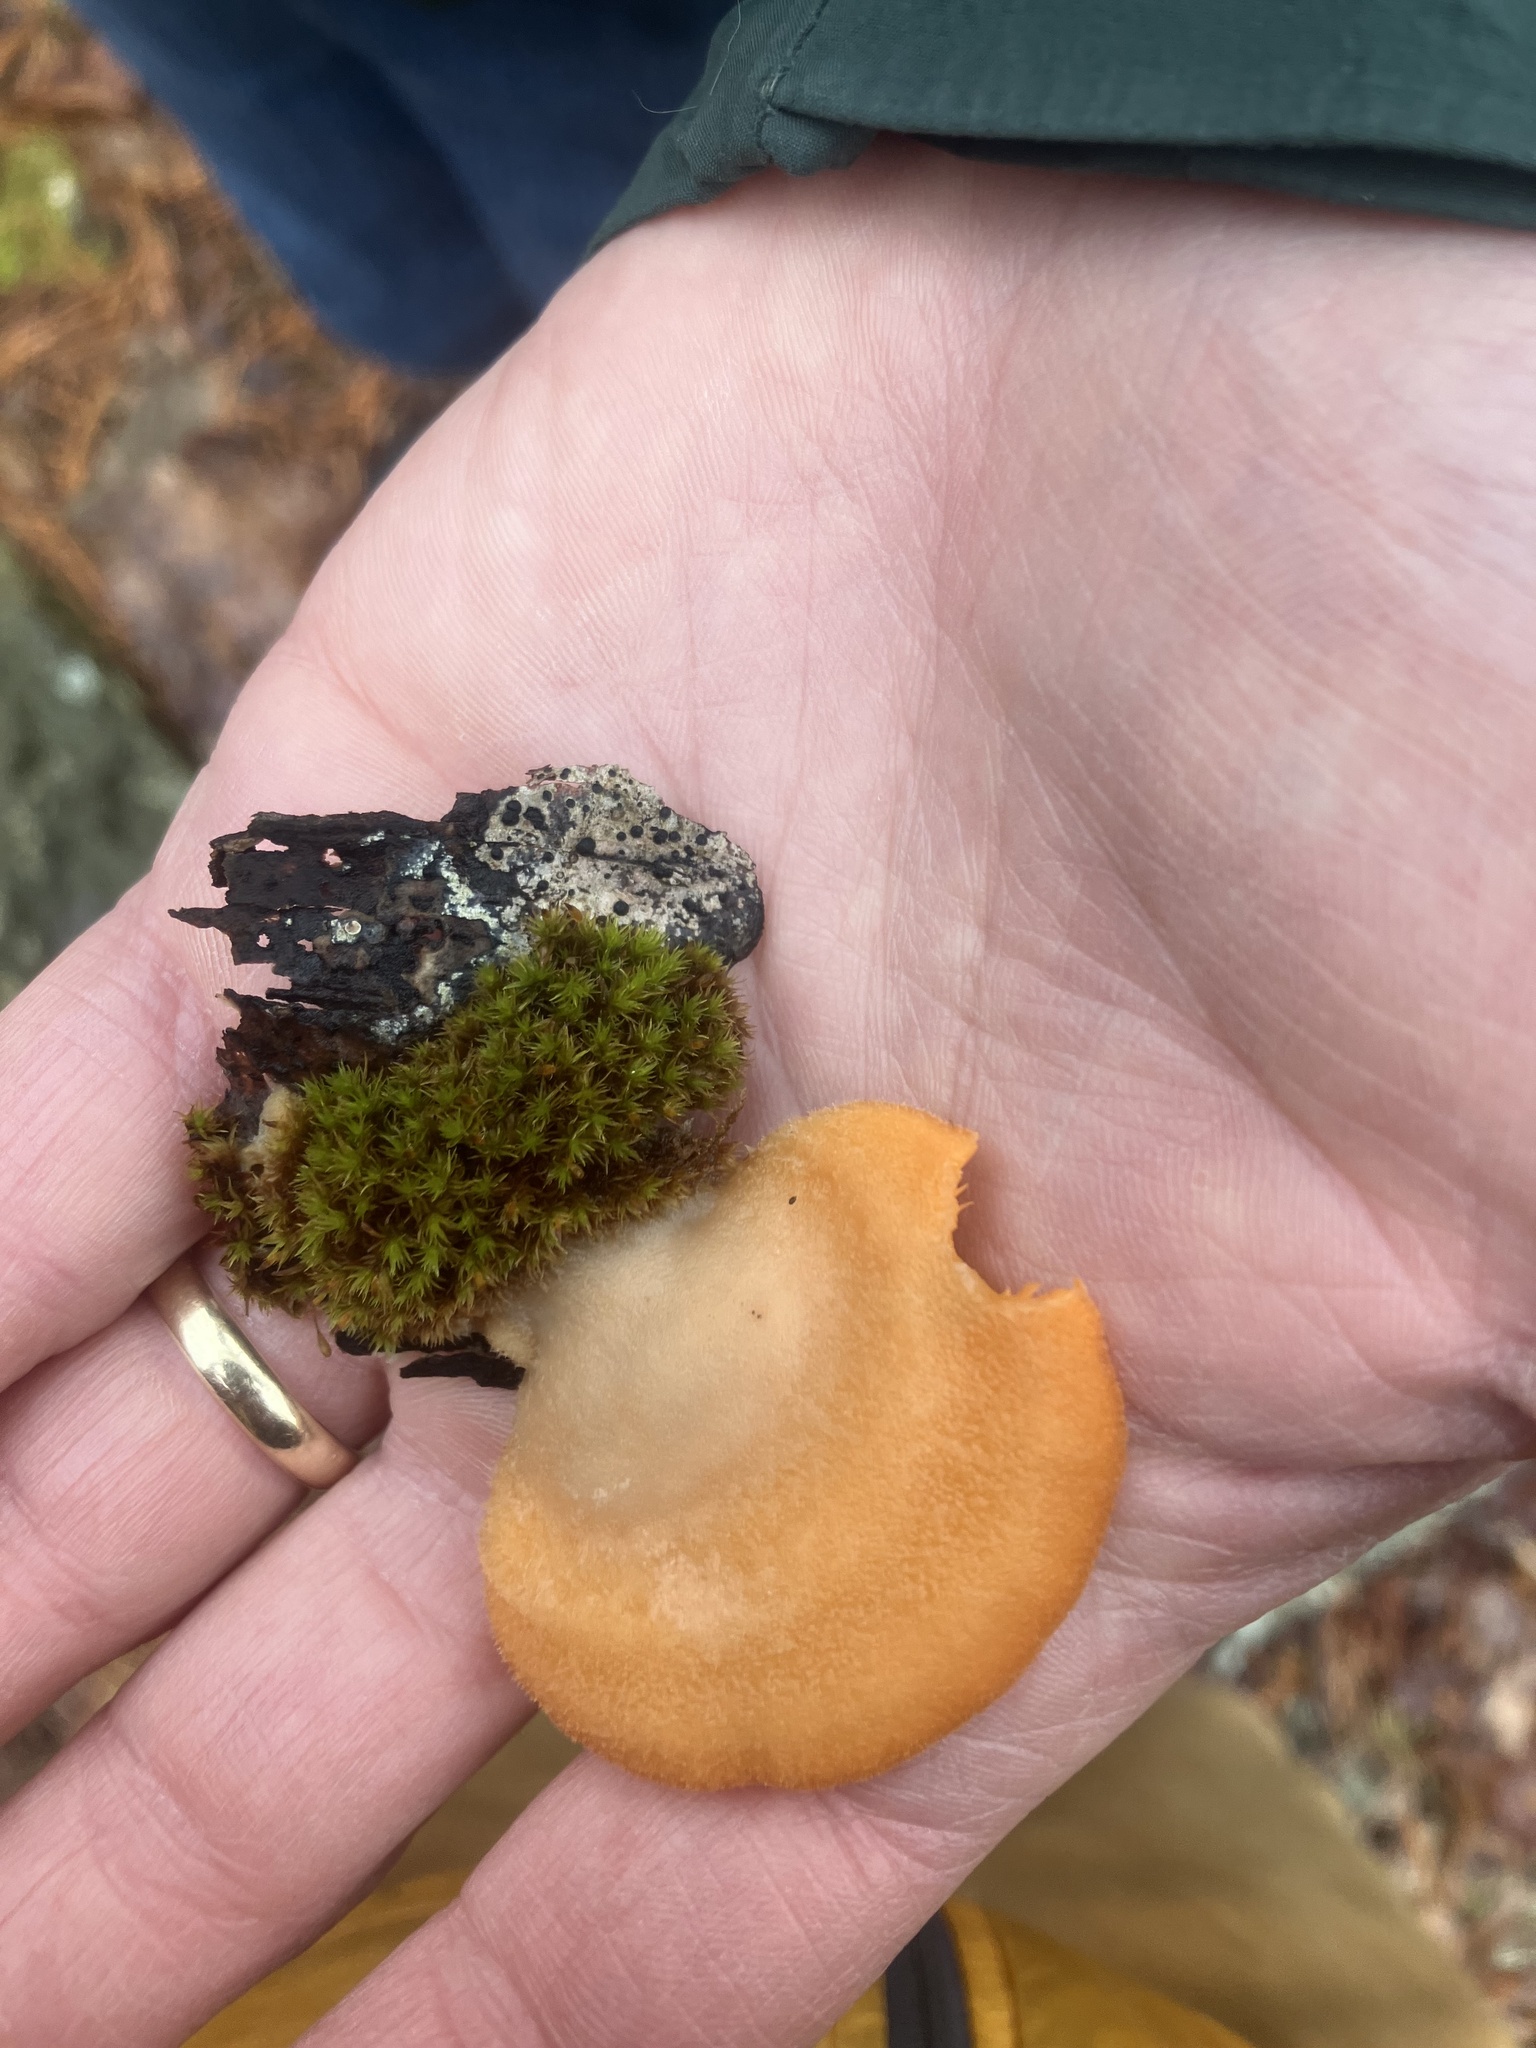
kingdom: Fungi
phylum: Basidiomycota
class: Agaricomycetes
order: Agaricales
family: Phyllotopsidaceae
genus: Phyllotopsis
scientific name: Phyllotopsis nidulans
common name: Orange mock oyster
